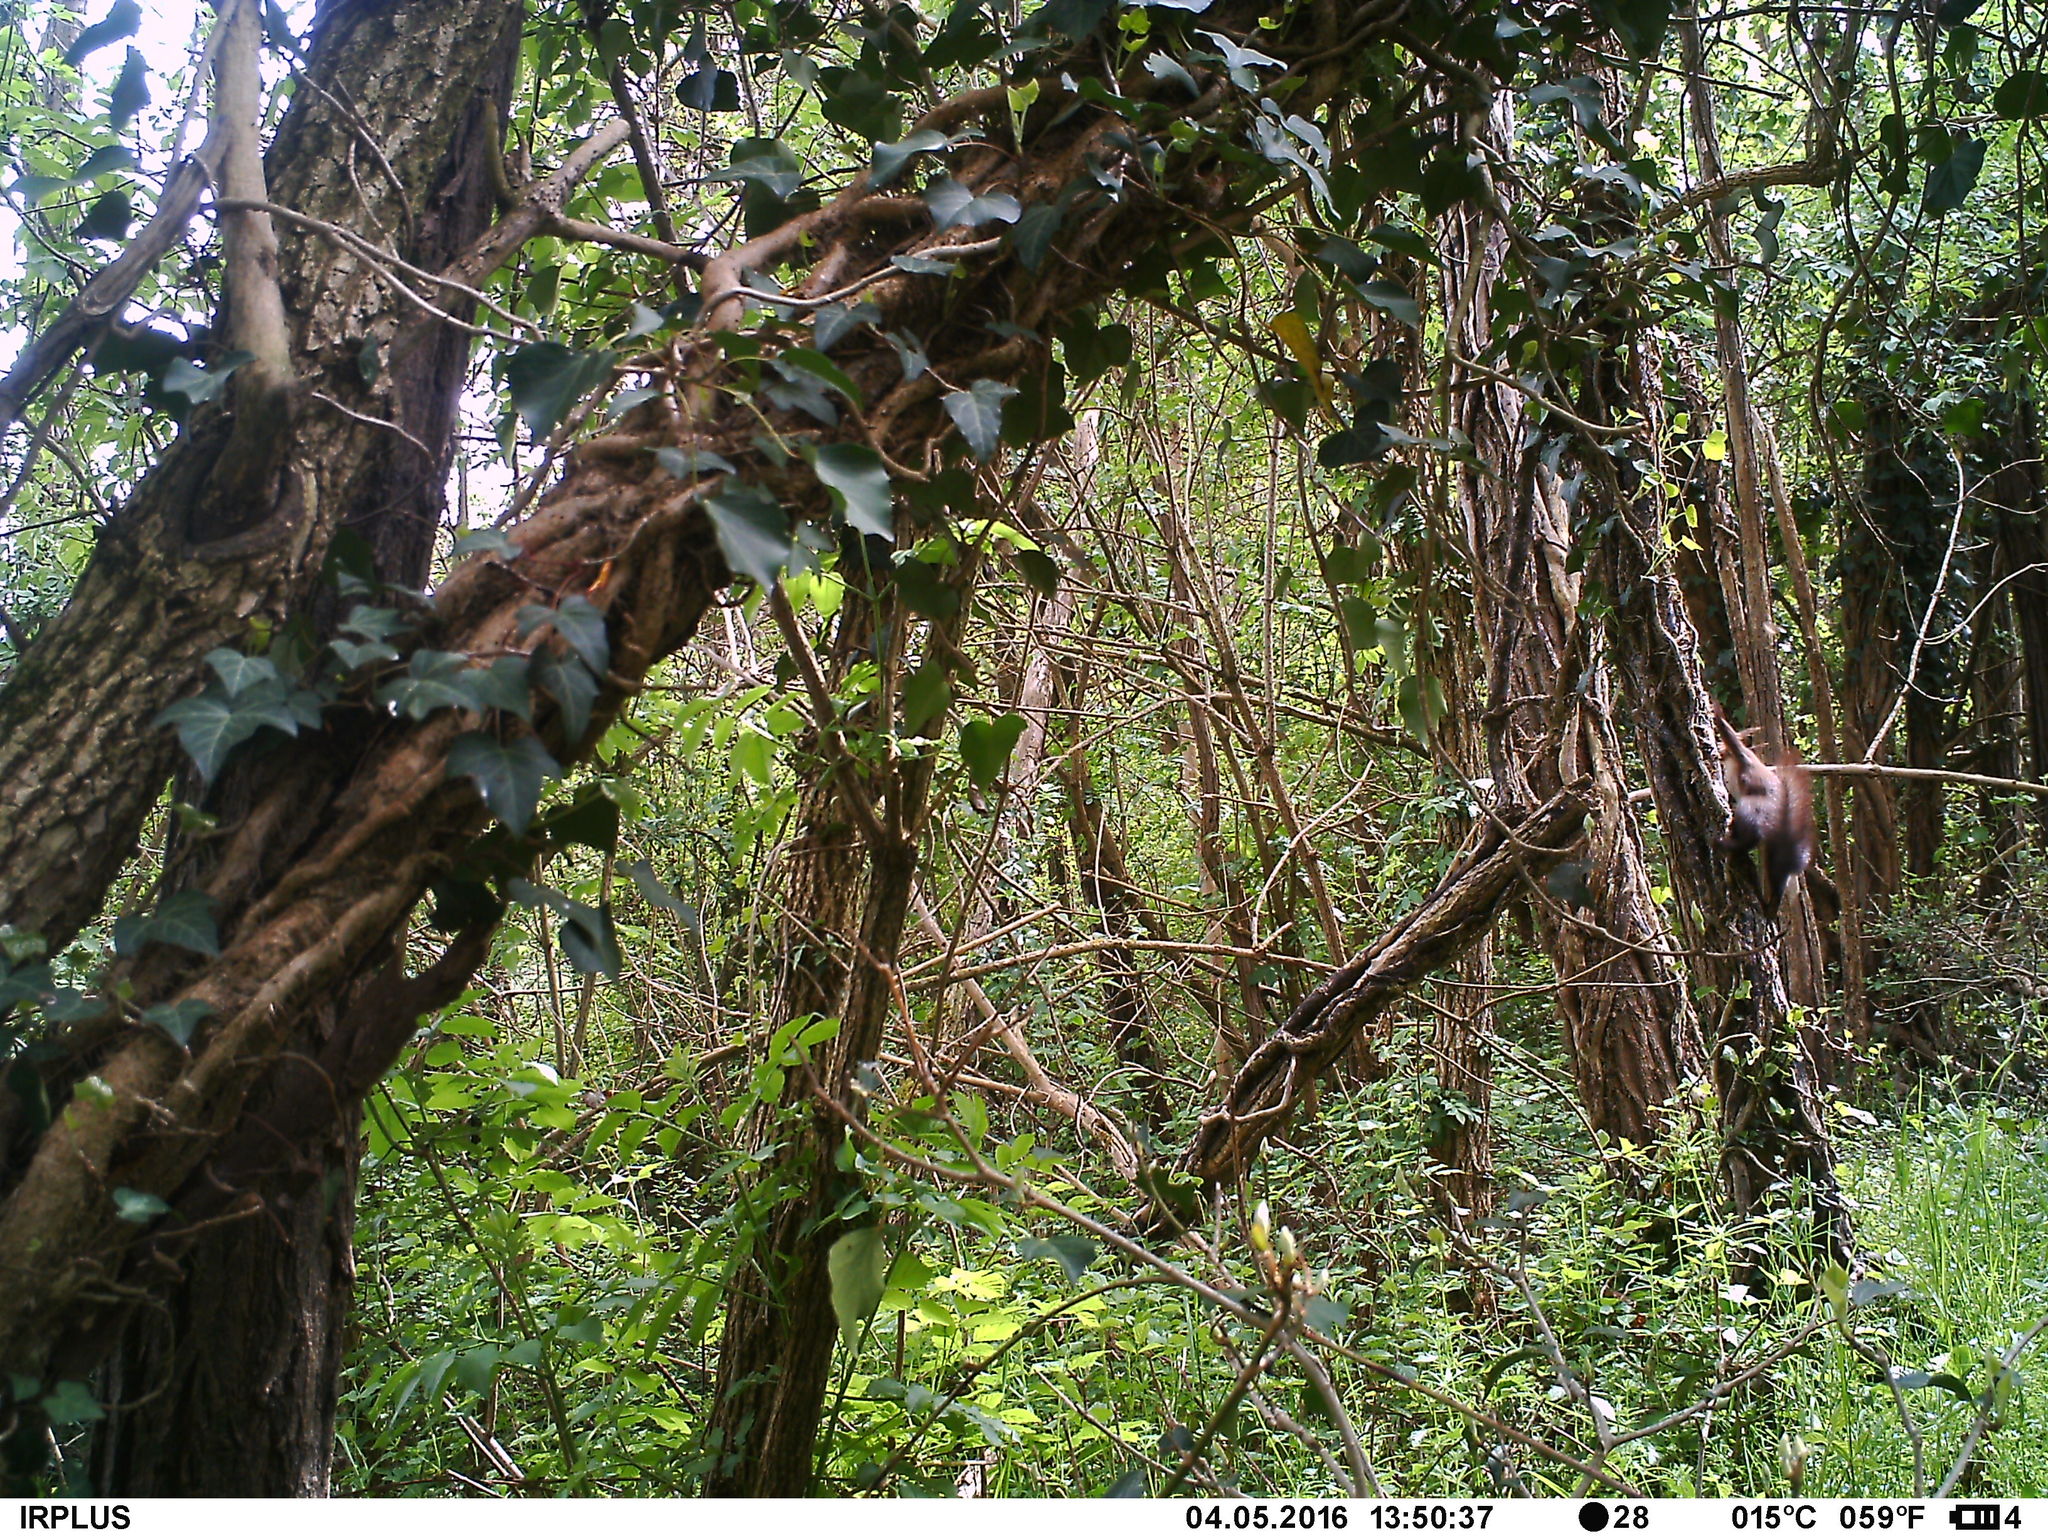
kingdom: Animalia
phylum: Chordata
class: Mammalia
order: Rodentia
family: Sciuridae
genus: Sciurus
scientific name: Sciurus vulgaris
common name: Eurasian red squirrel
